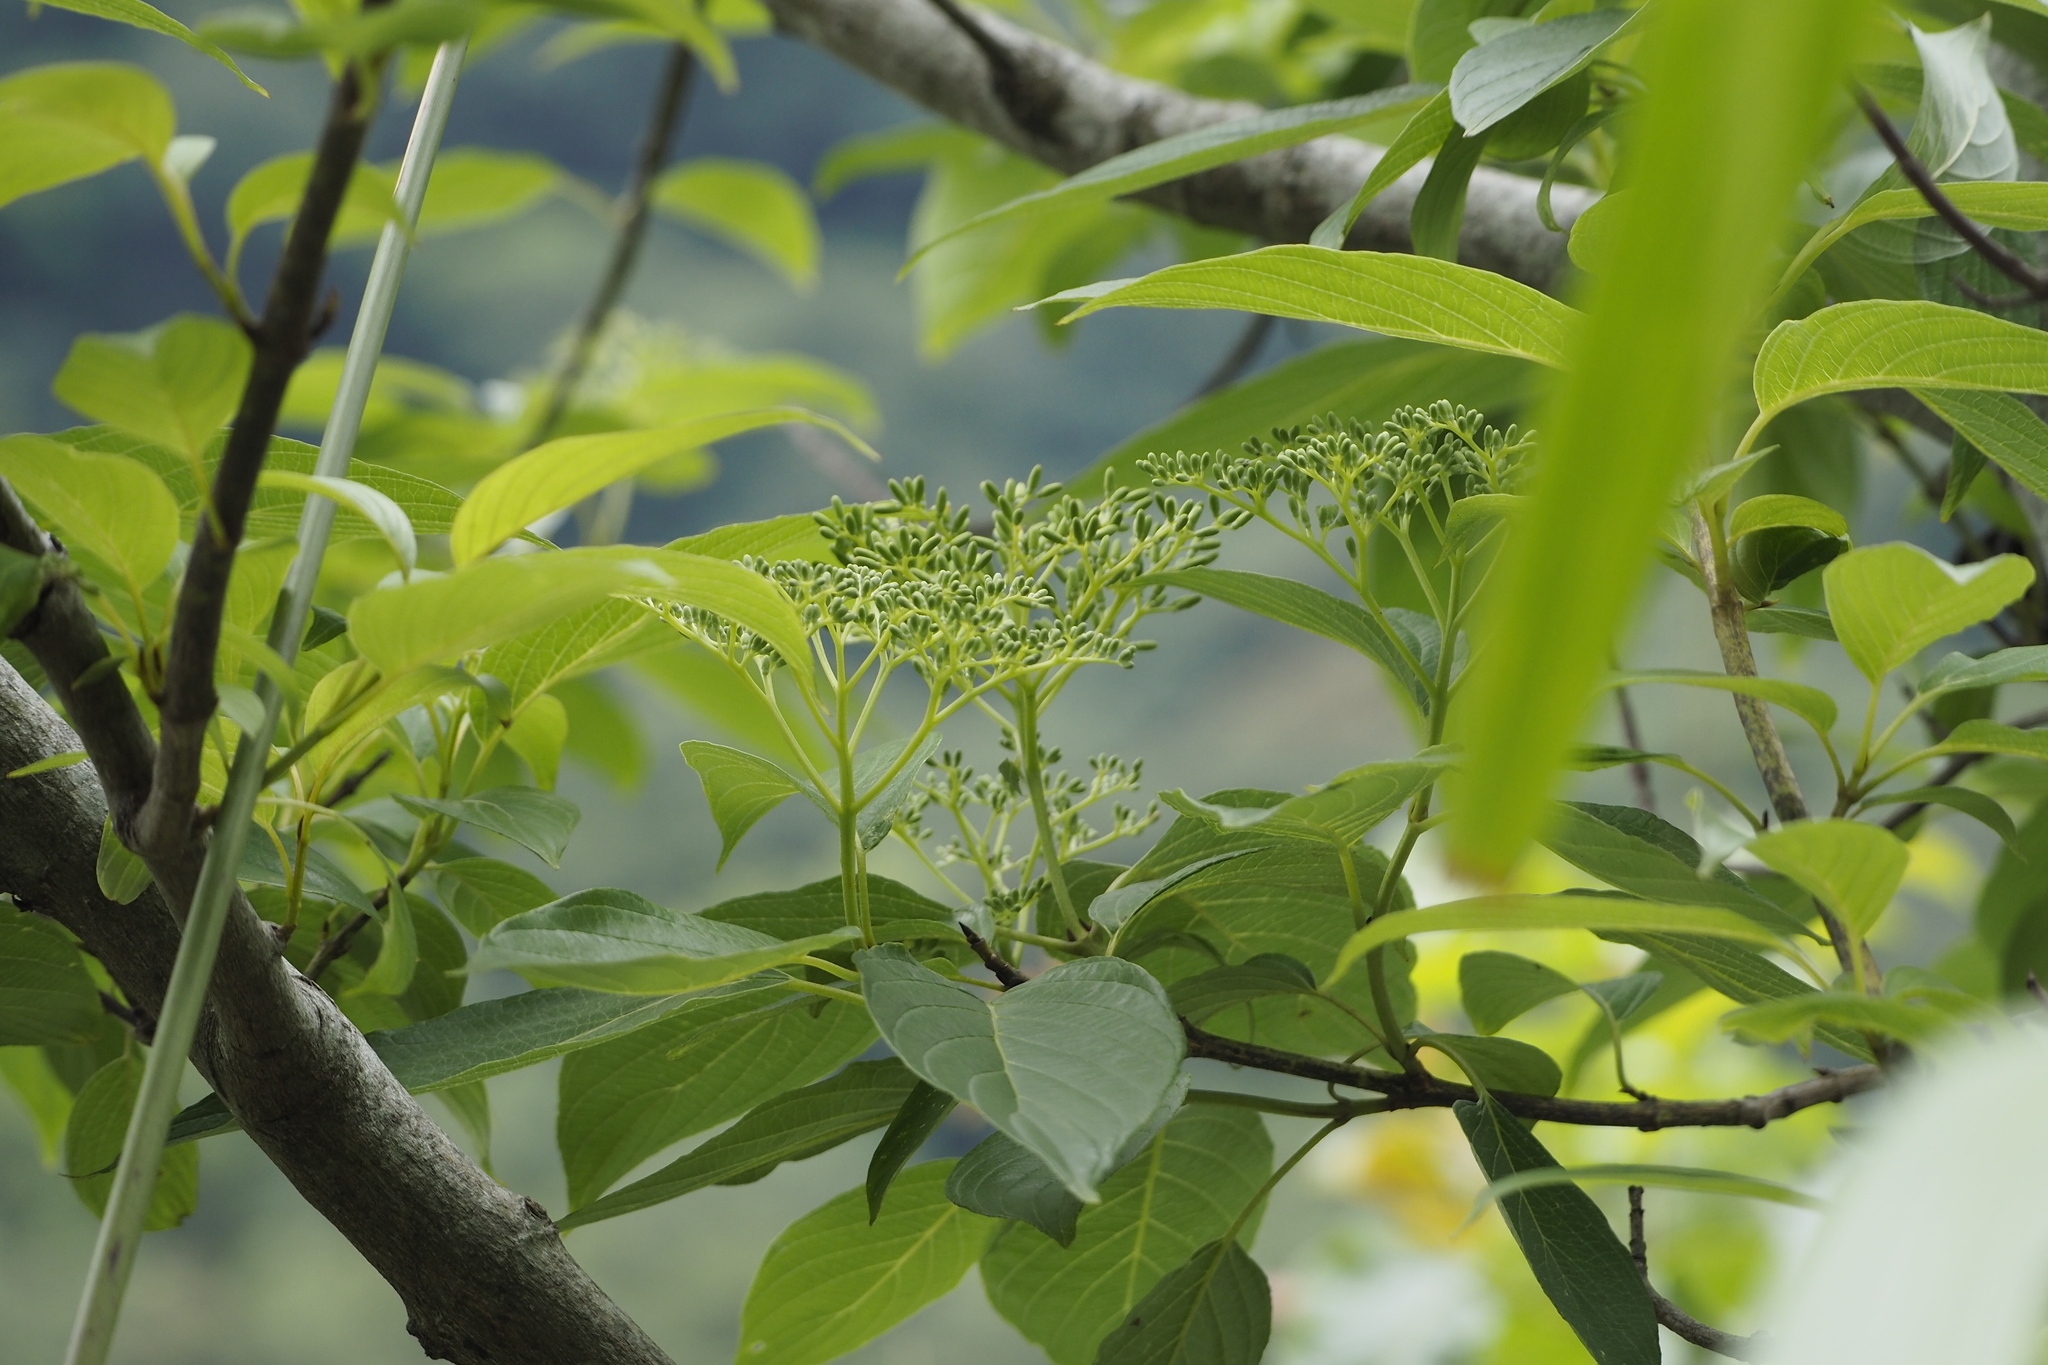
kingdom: Plantae
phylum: Tracheophyta
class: Magnoliopsida
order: Cornales
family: Cornaceae
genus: Cornus
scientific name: Cornus macrophylla
